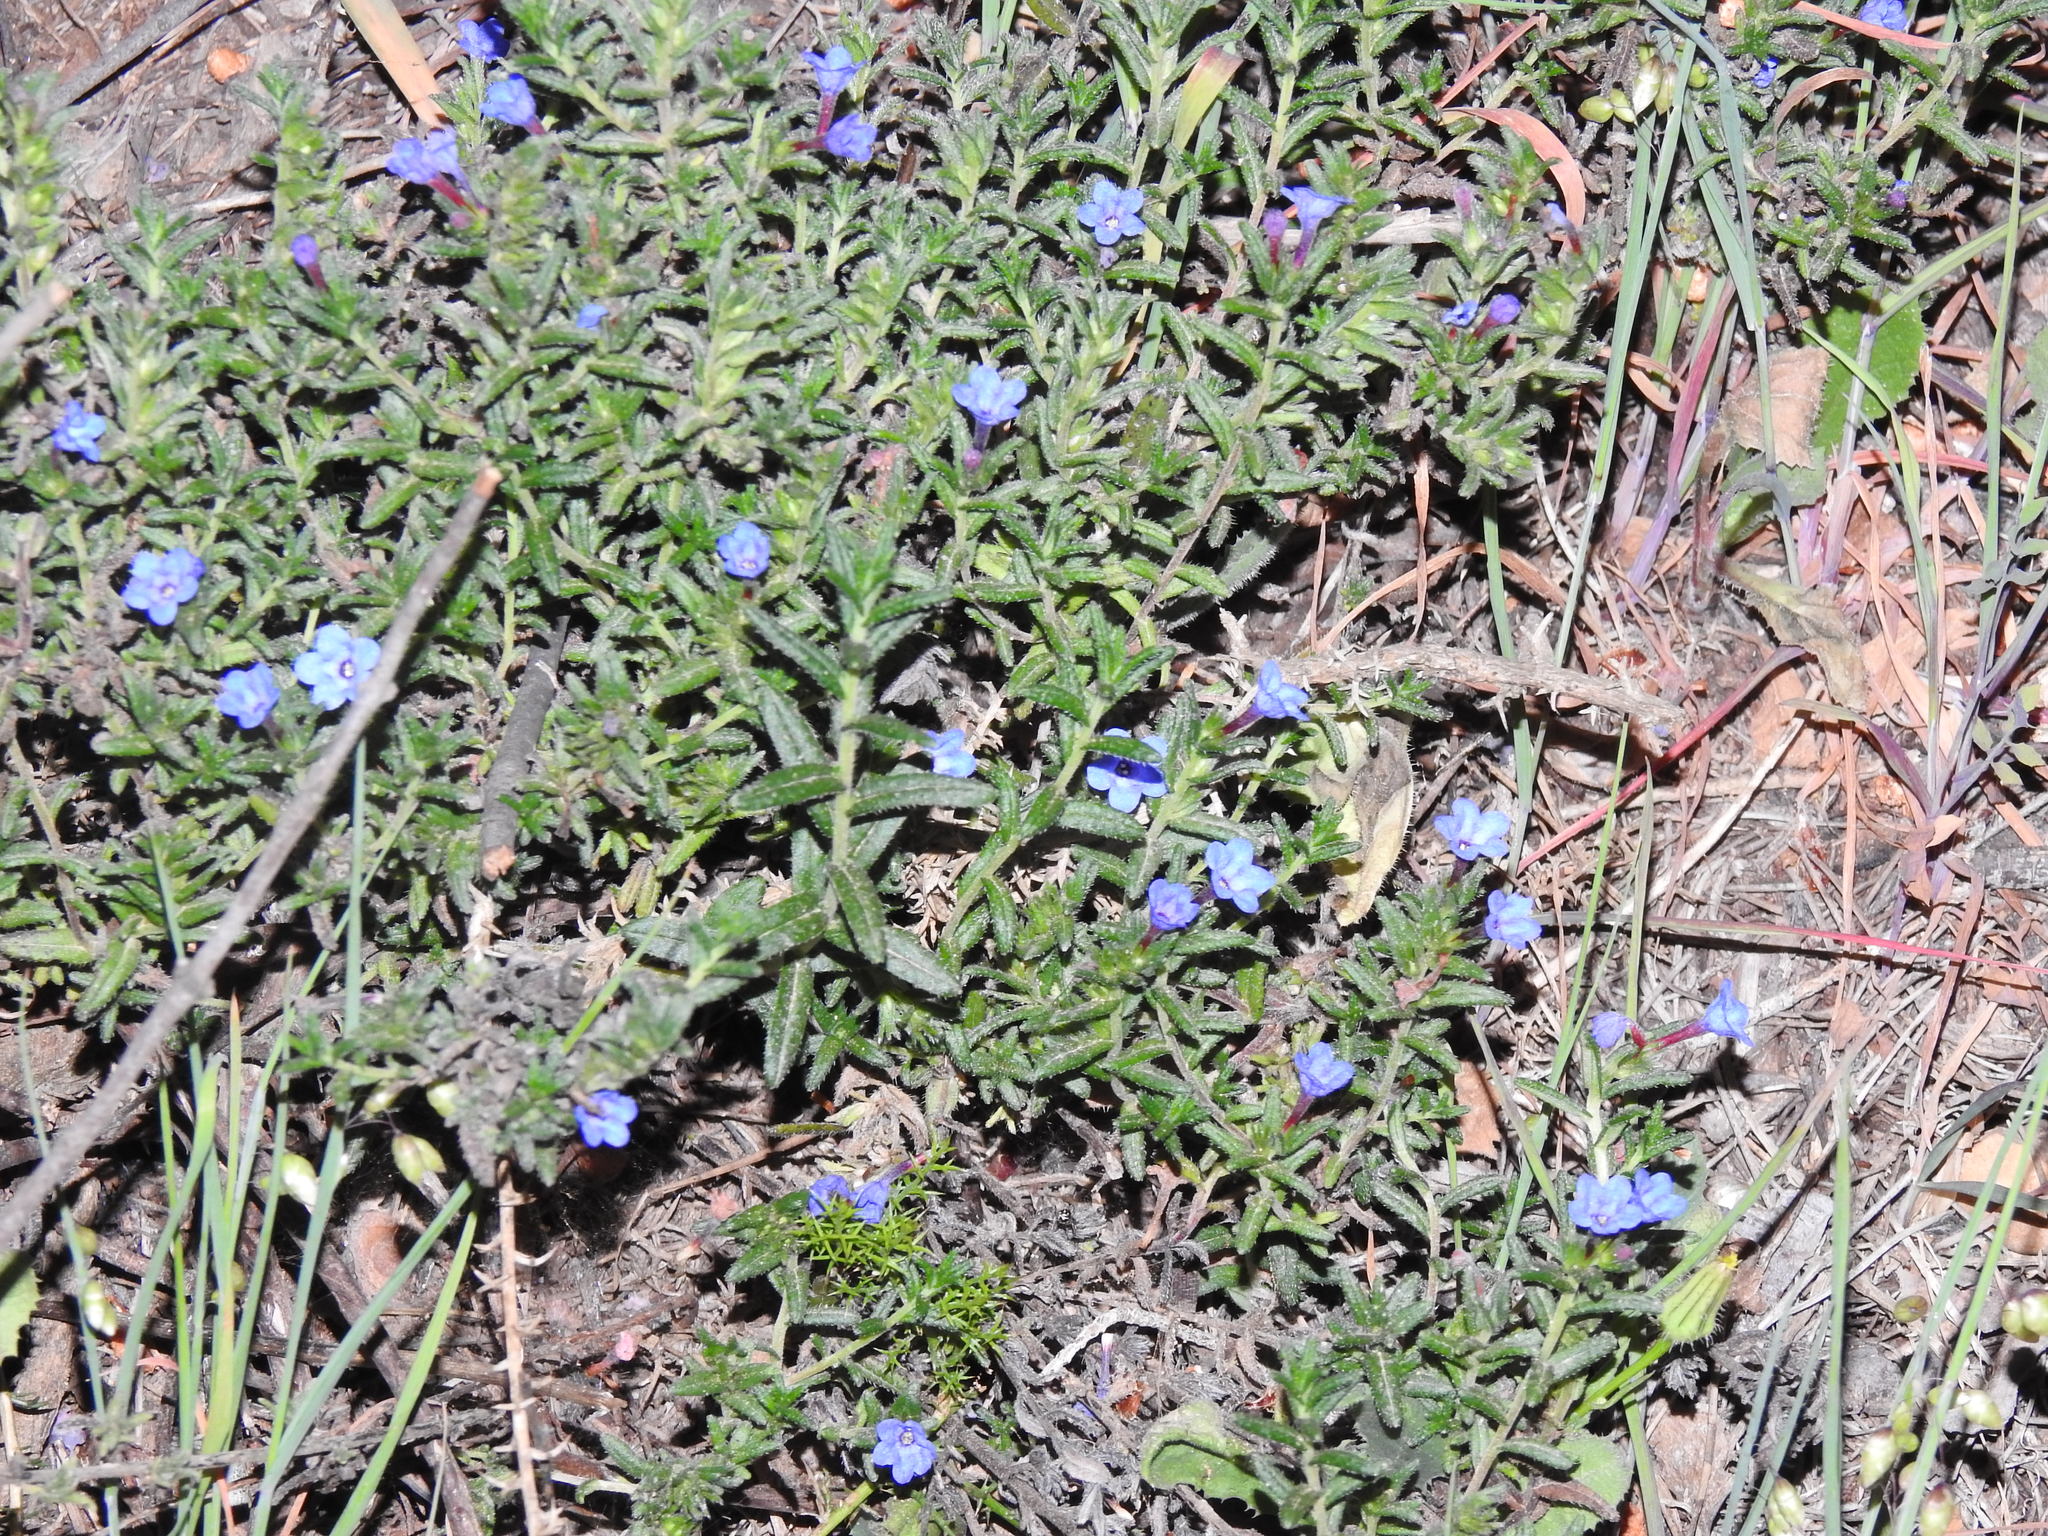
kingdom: Plantae
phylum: Tracheophyta
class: Magnoliopsida
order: Boraginales
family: Boraginaceae
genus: Glandora
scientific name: Glandora prostrata
